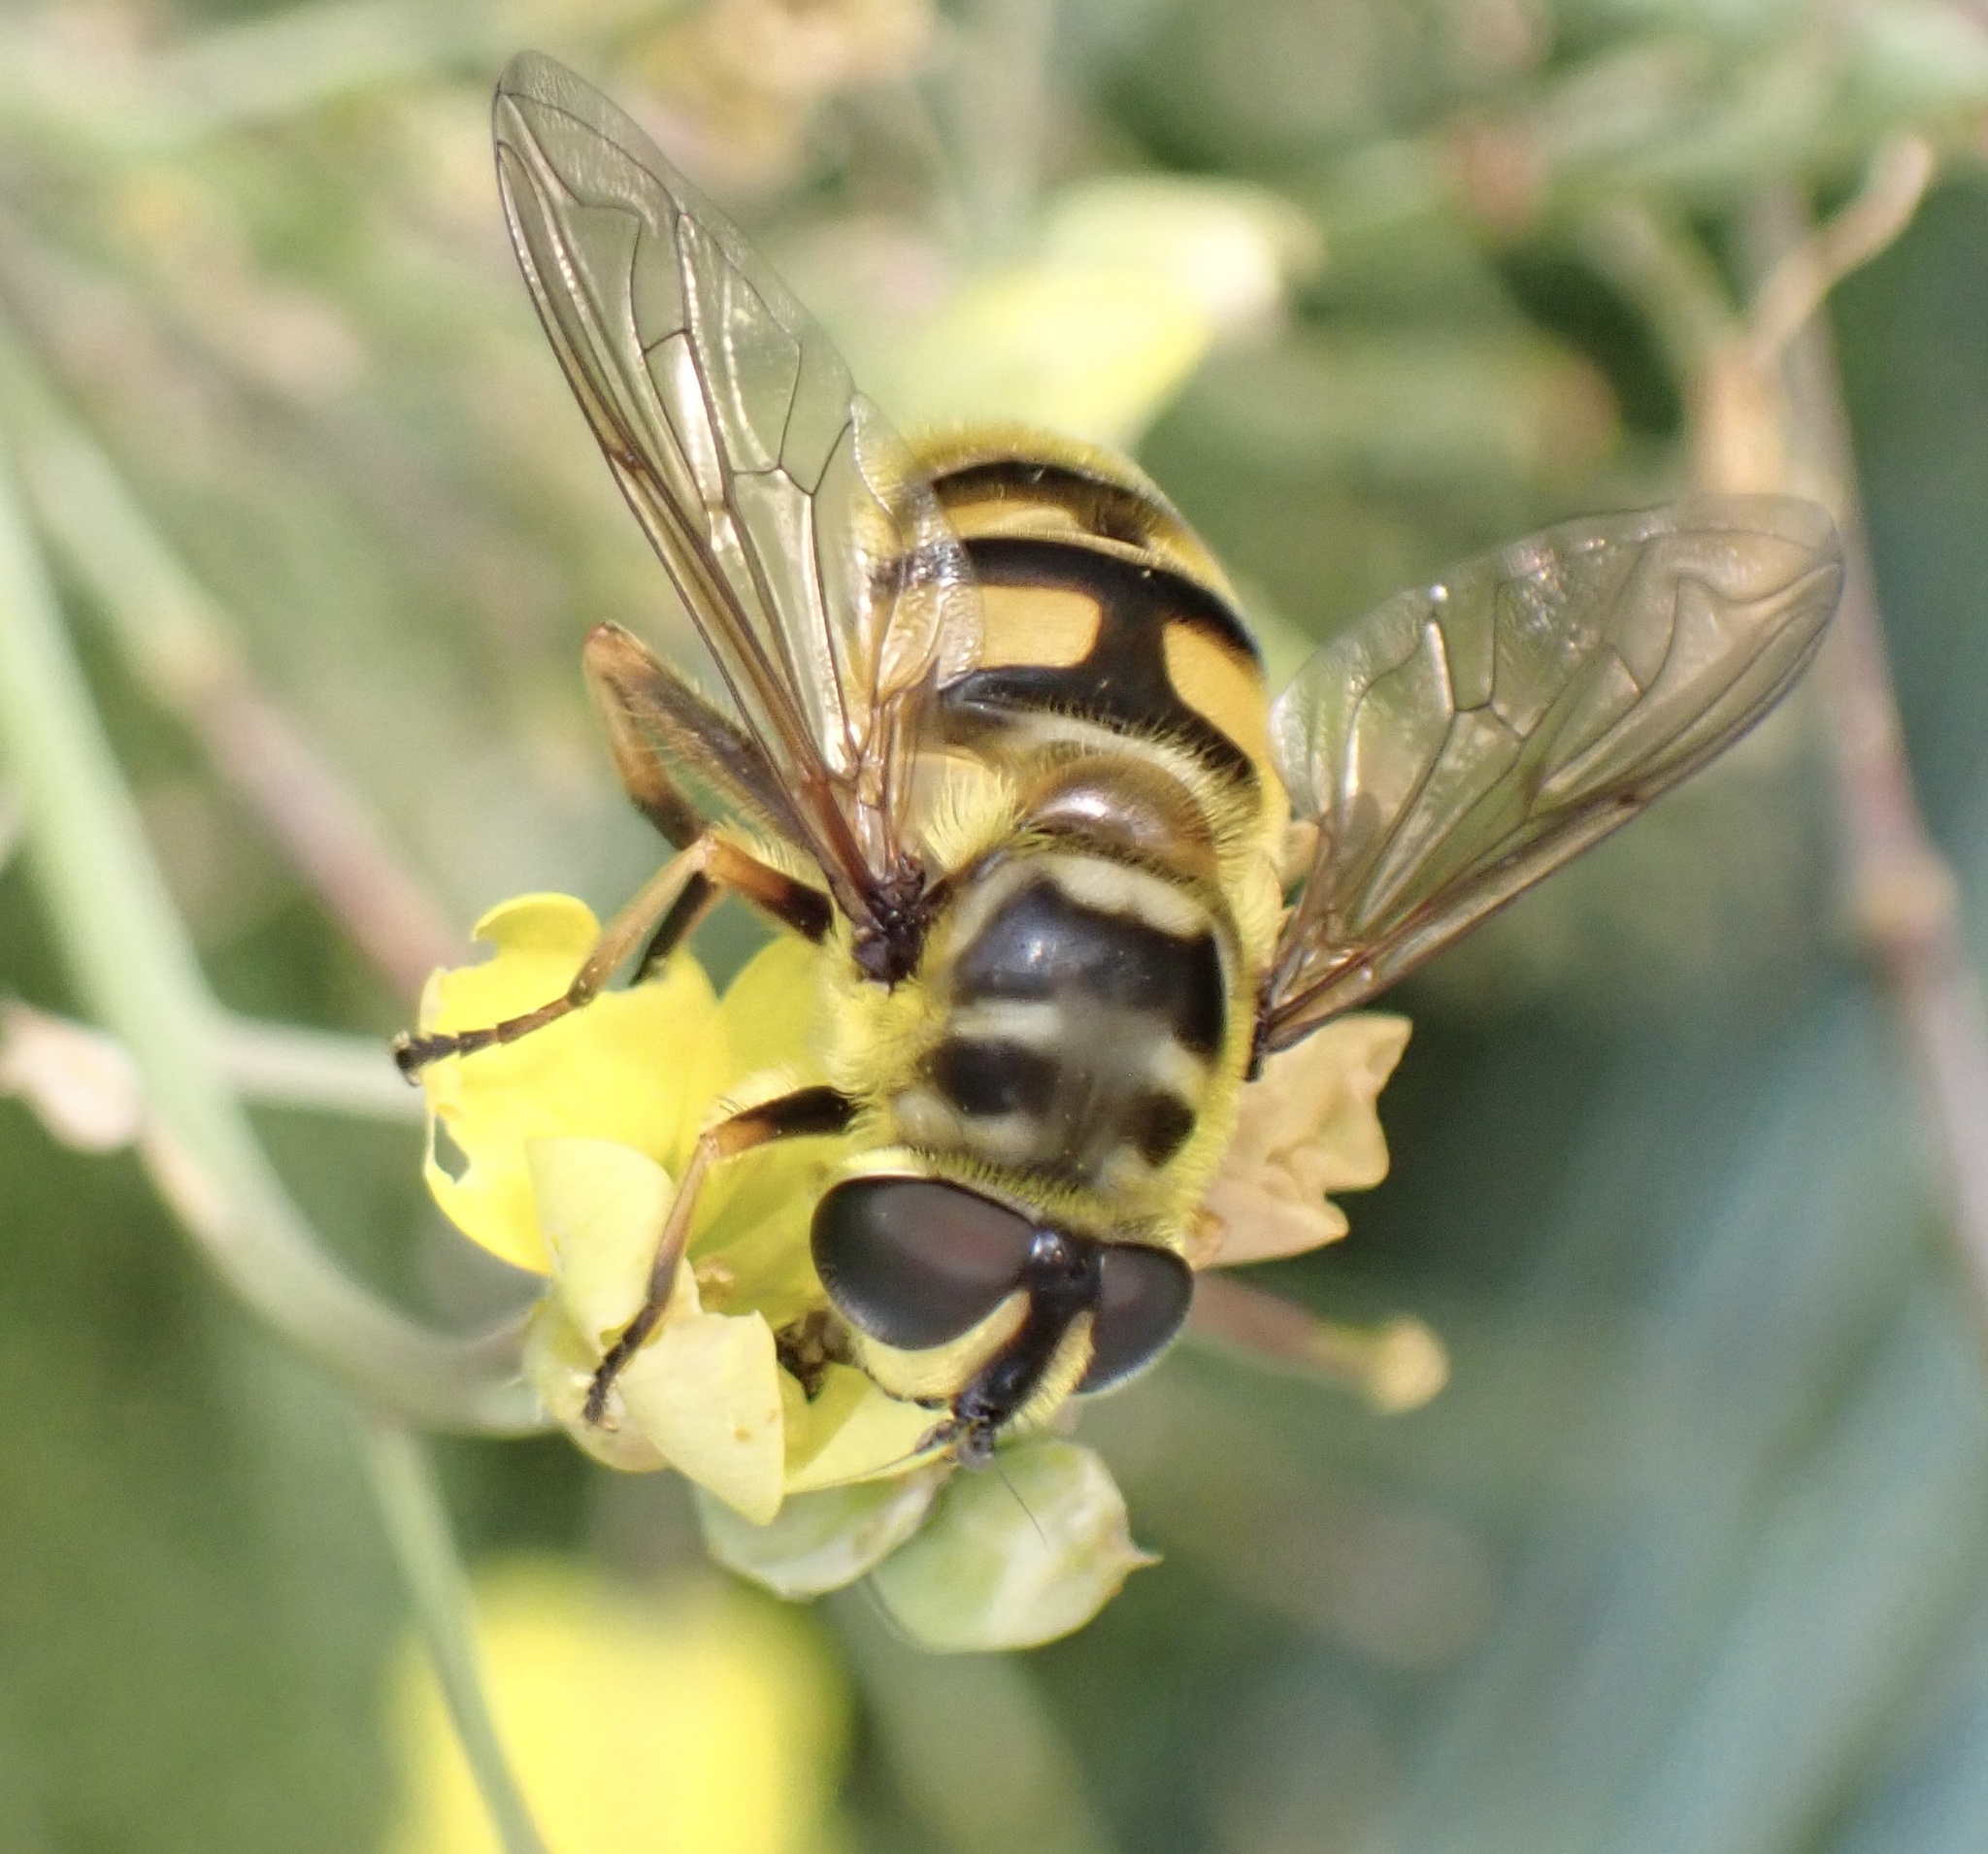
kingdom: Animalia
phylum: Arthropoda
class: Insecta
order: Diptera
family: Syrphidae
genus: Myathropa
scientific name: Myathropa florea
